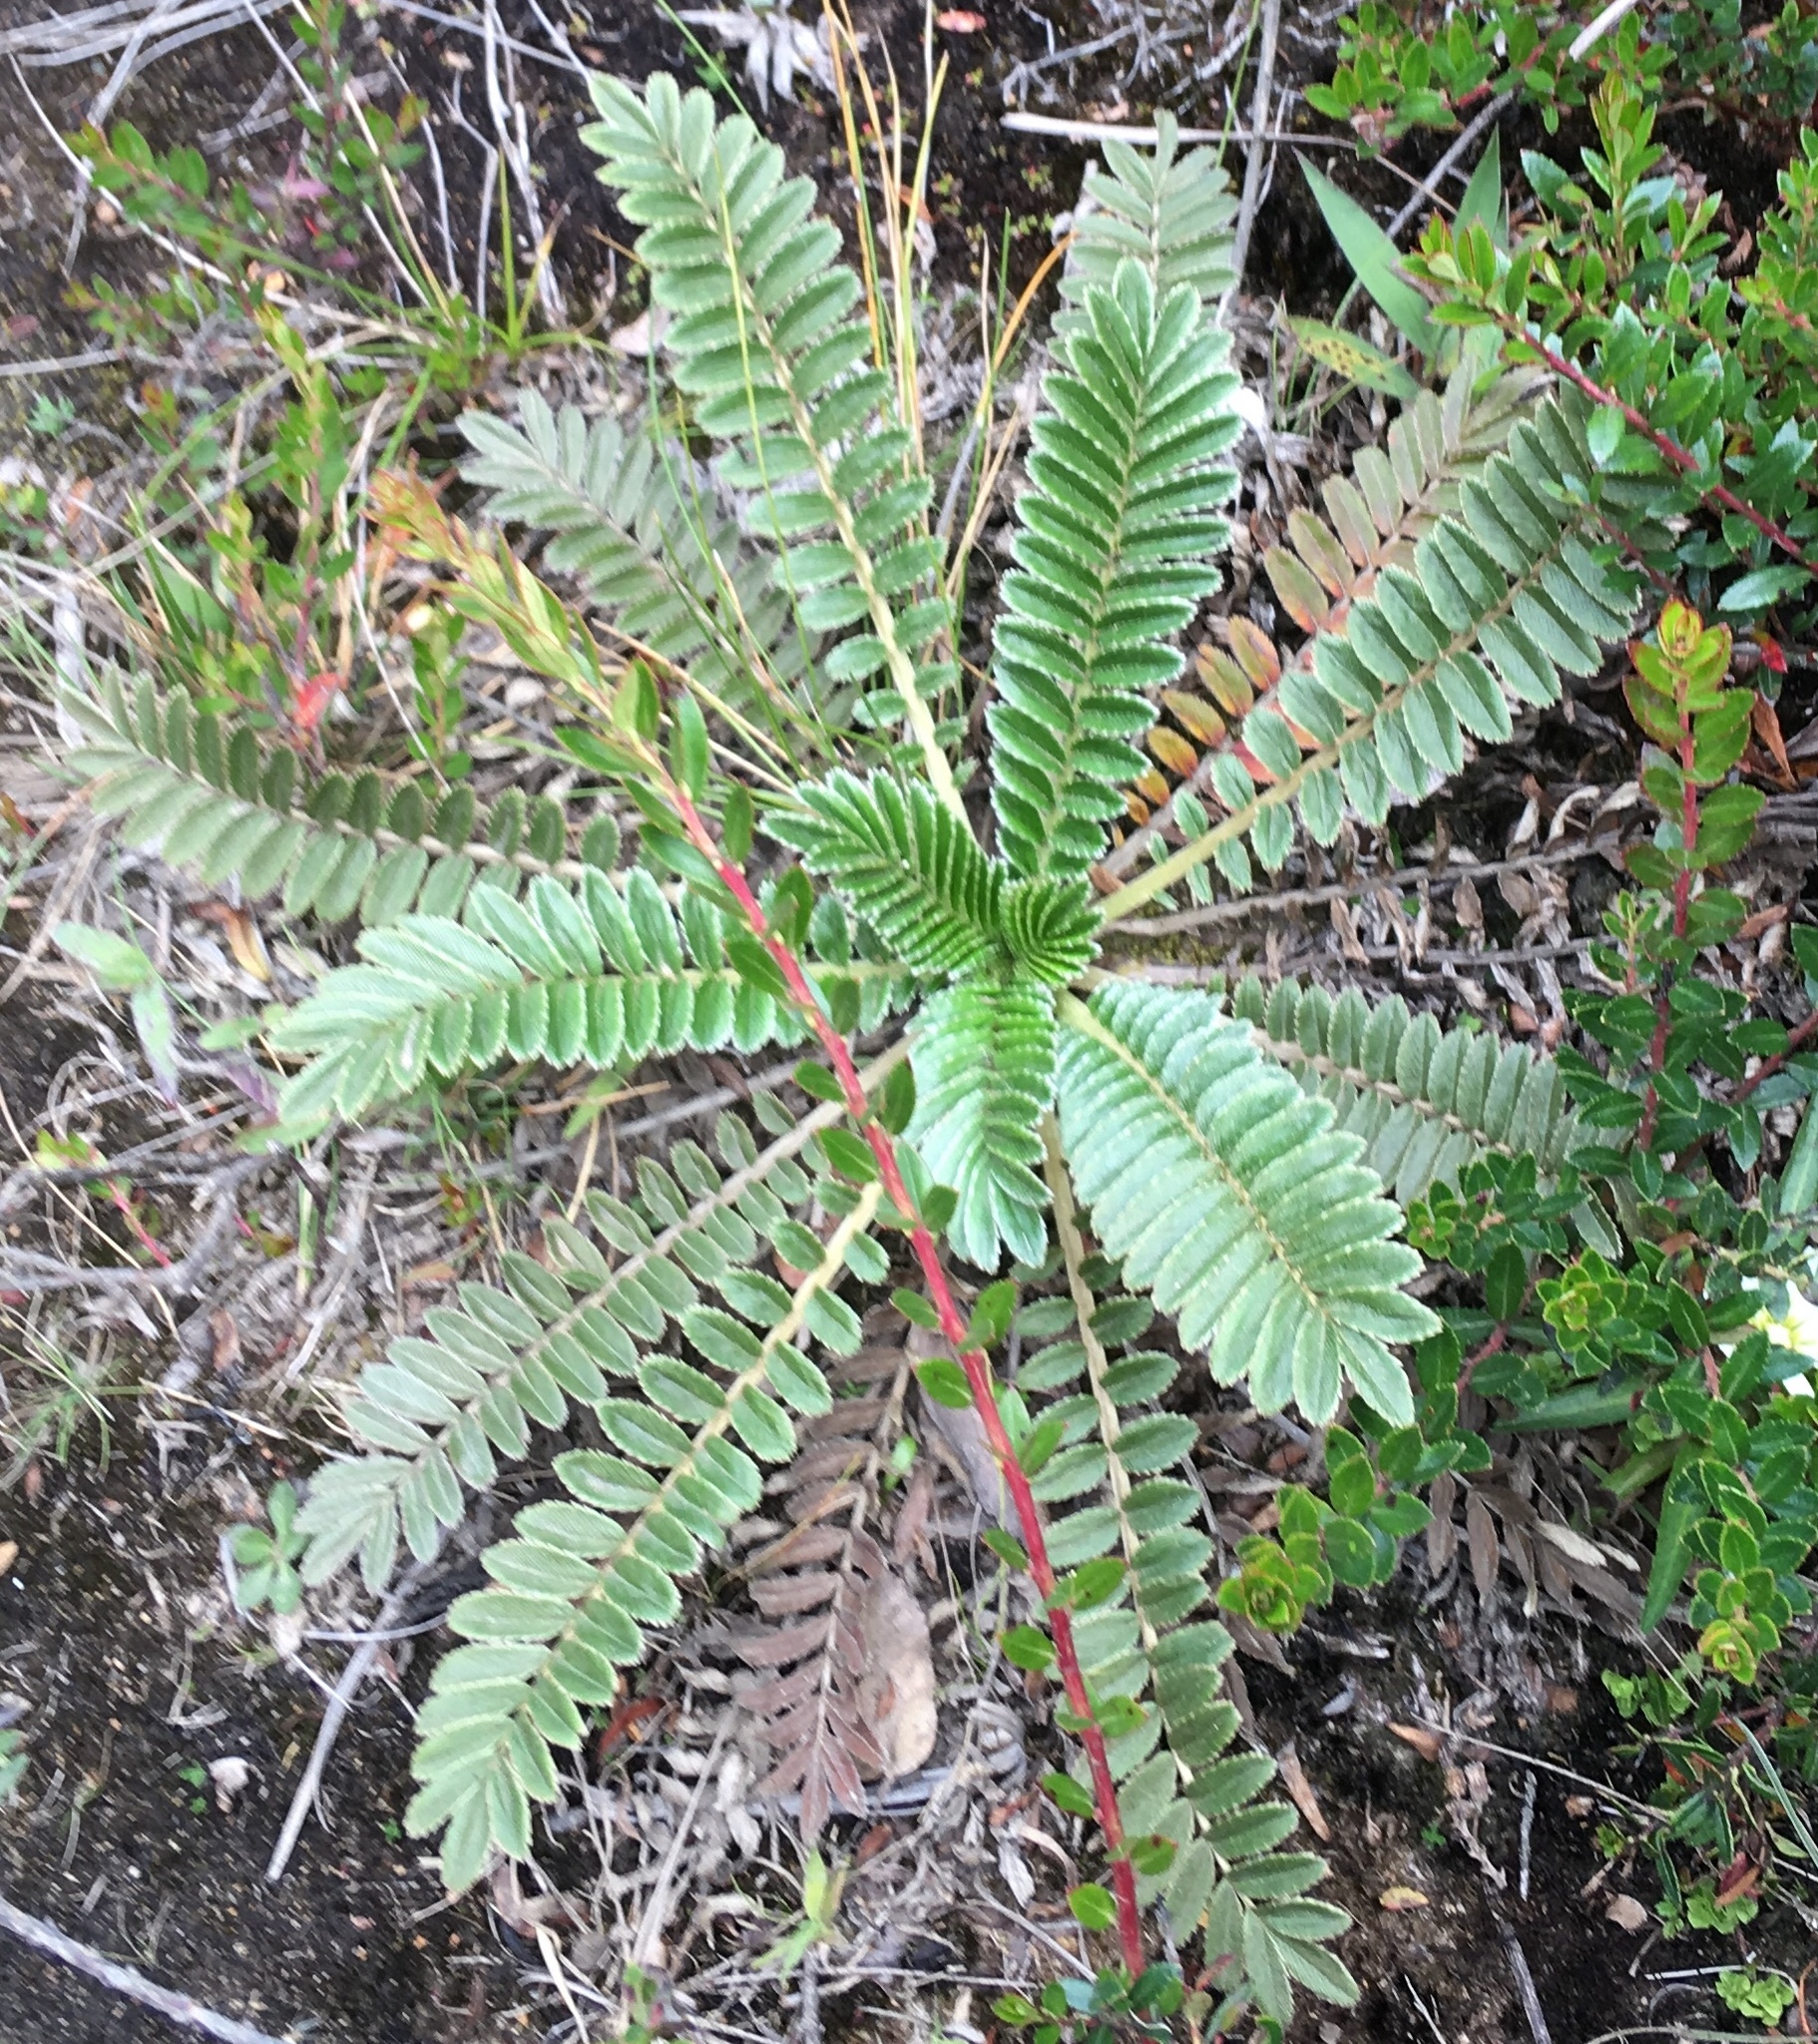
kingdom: Plantae
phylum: Tracheophyta
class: Magnoliopsida
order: Rosales
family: Rosaceae
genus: Acaena
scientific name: Acaena cylindristachya
